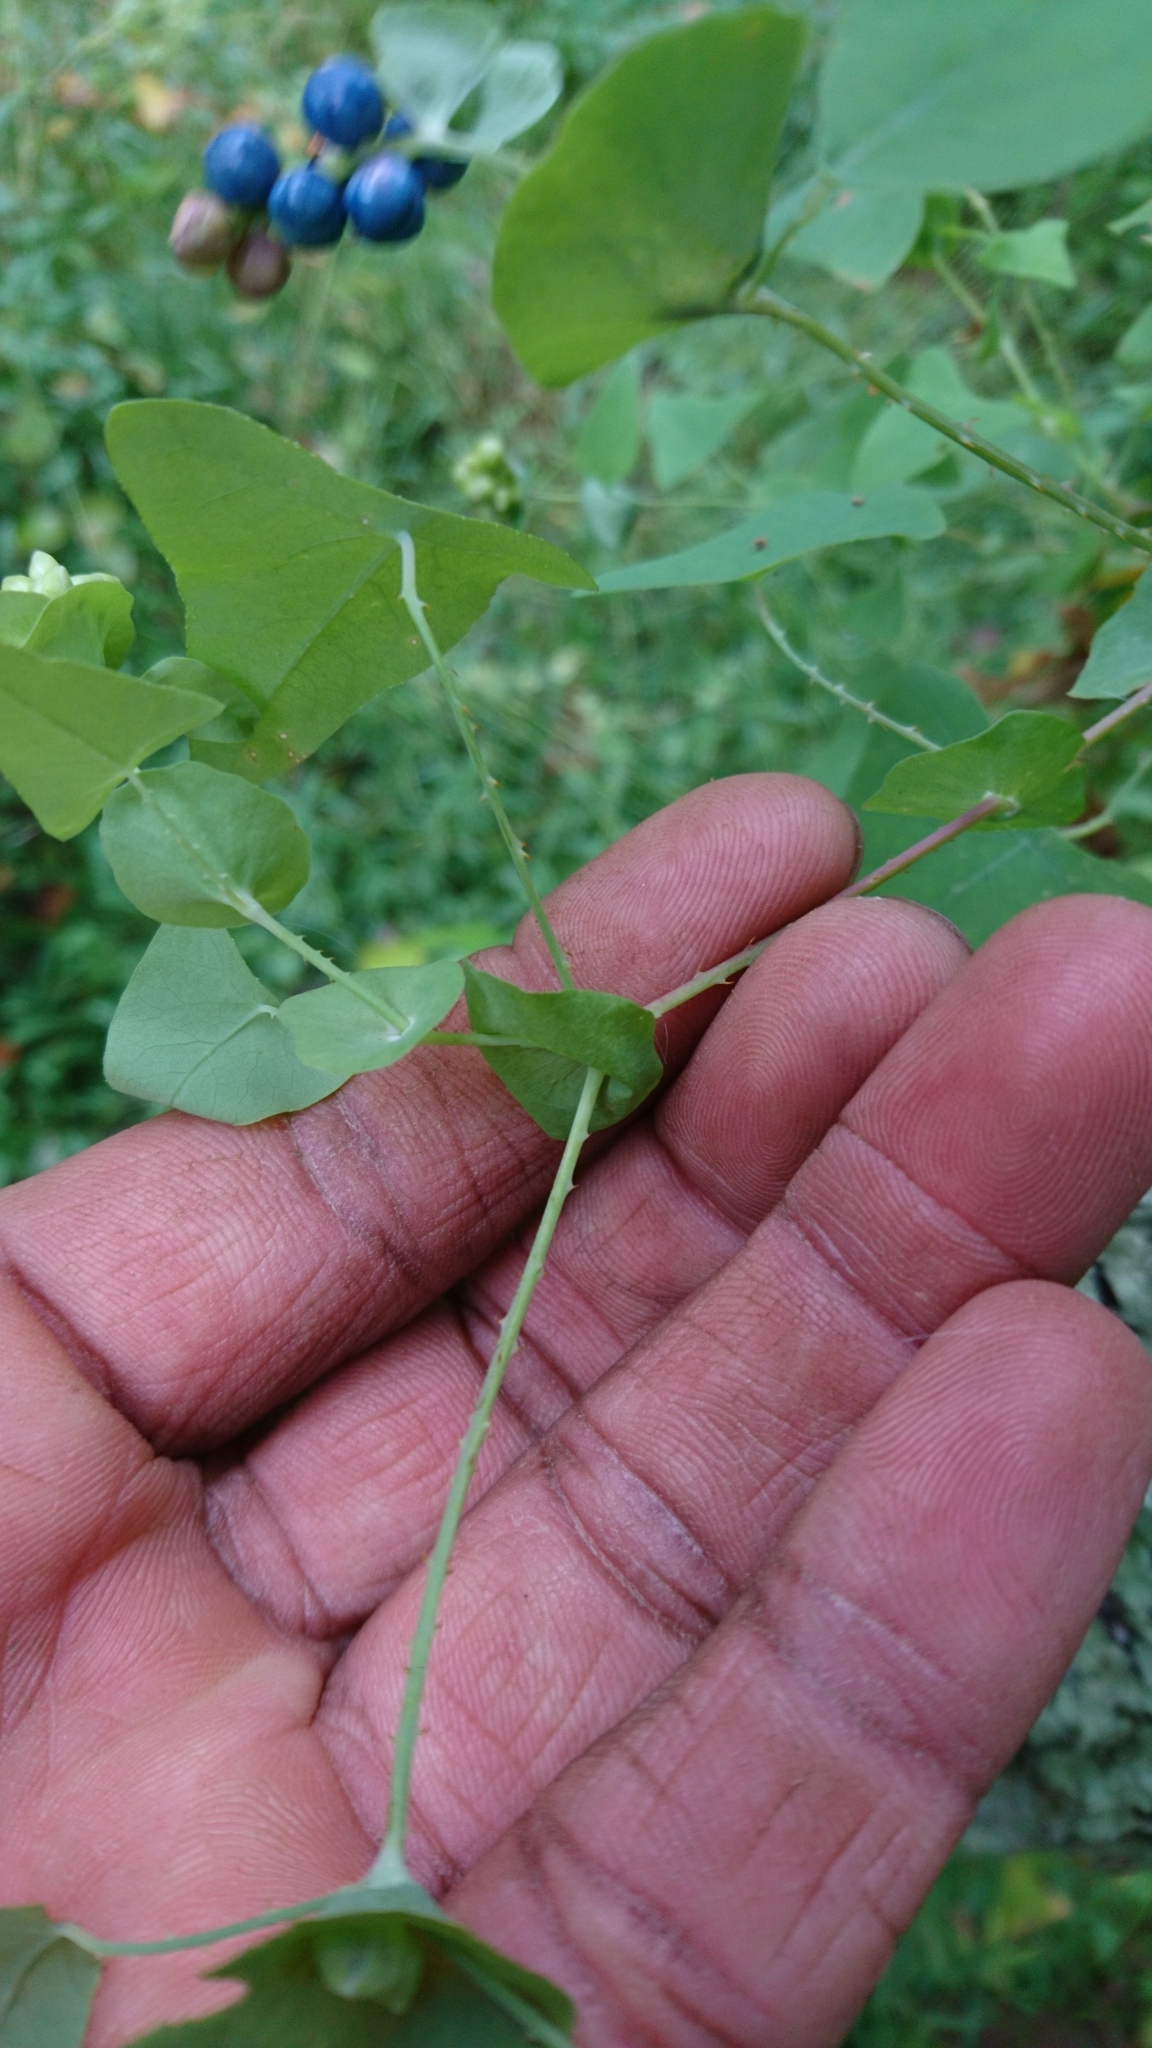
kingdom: Plantae
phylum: Tracheophyta
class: Magnoliopsida
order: Caryophyllales
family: Polygonaceae
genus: Persicaria
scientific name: Persicaria perfoliata
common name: Asiatic tearthumb
